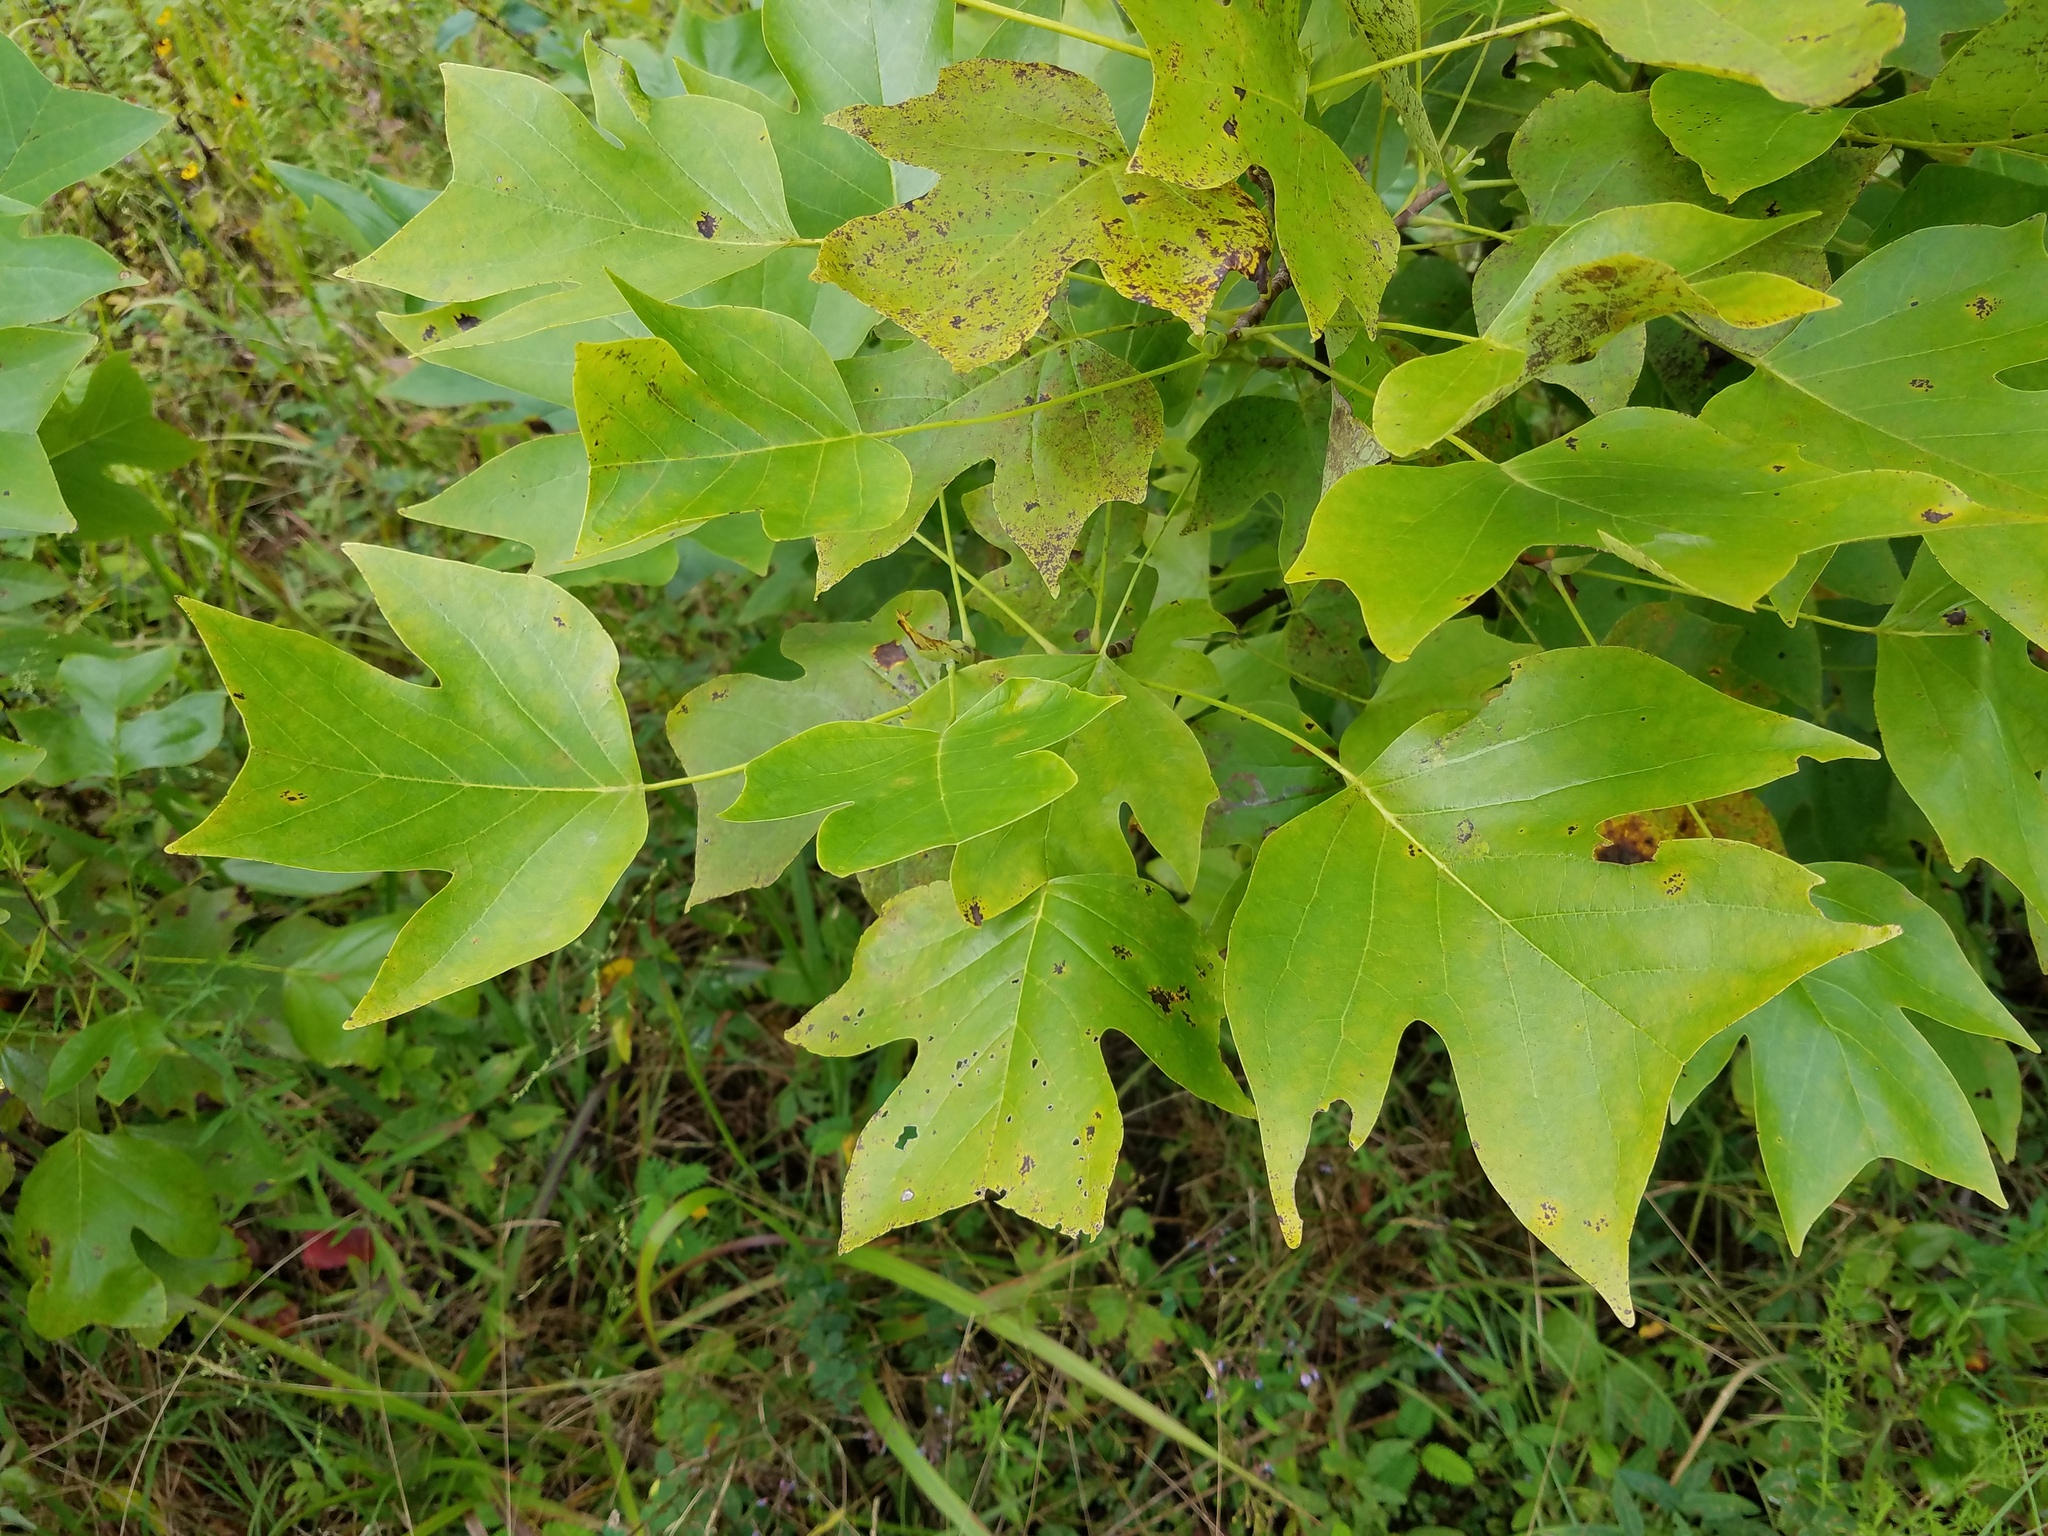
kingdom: Plantae
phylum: Tracheophyta
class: Magnoliopsida
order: Magnoliales
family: Magnoliaceae
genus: Liriodendron
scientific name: Liriodendron tulipifera
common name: Tulip tree
